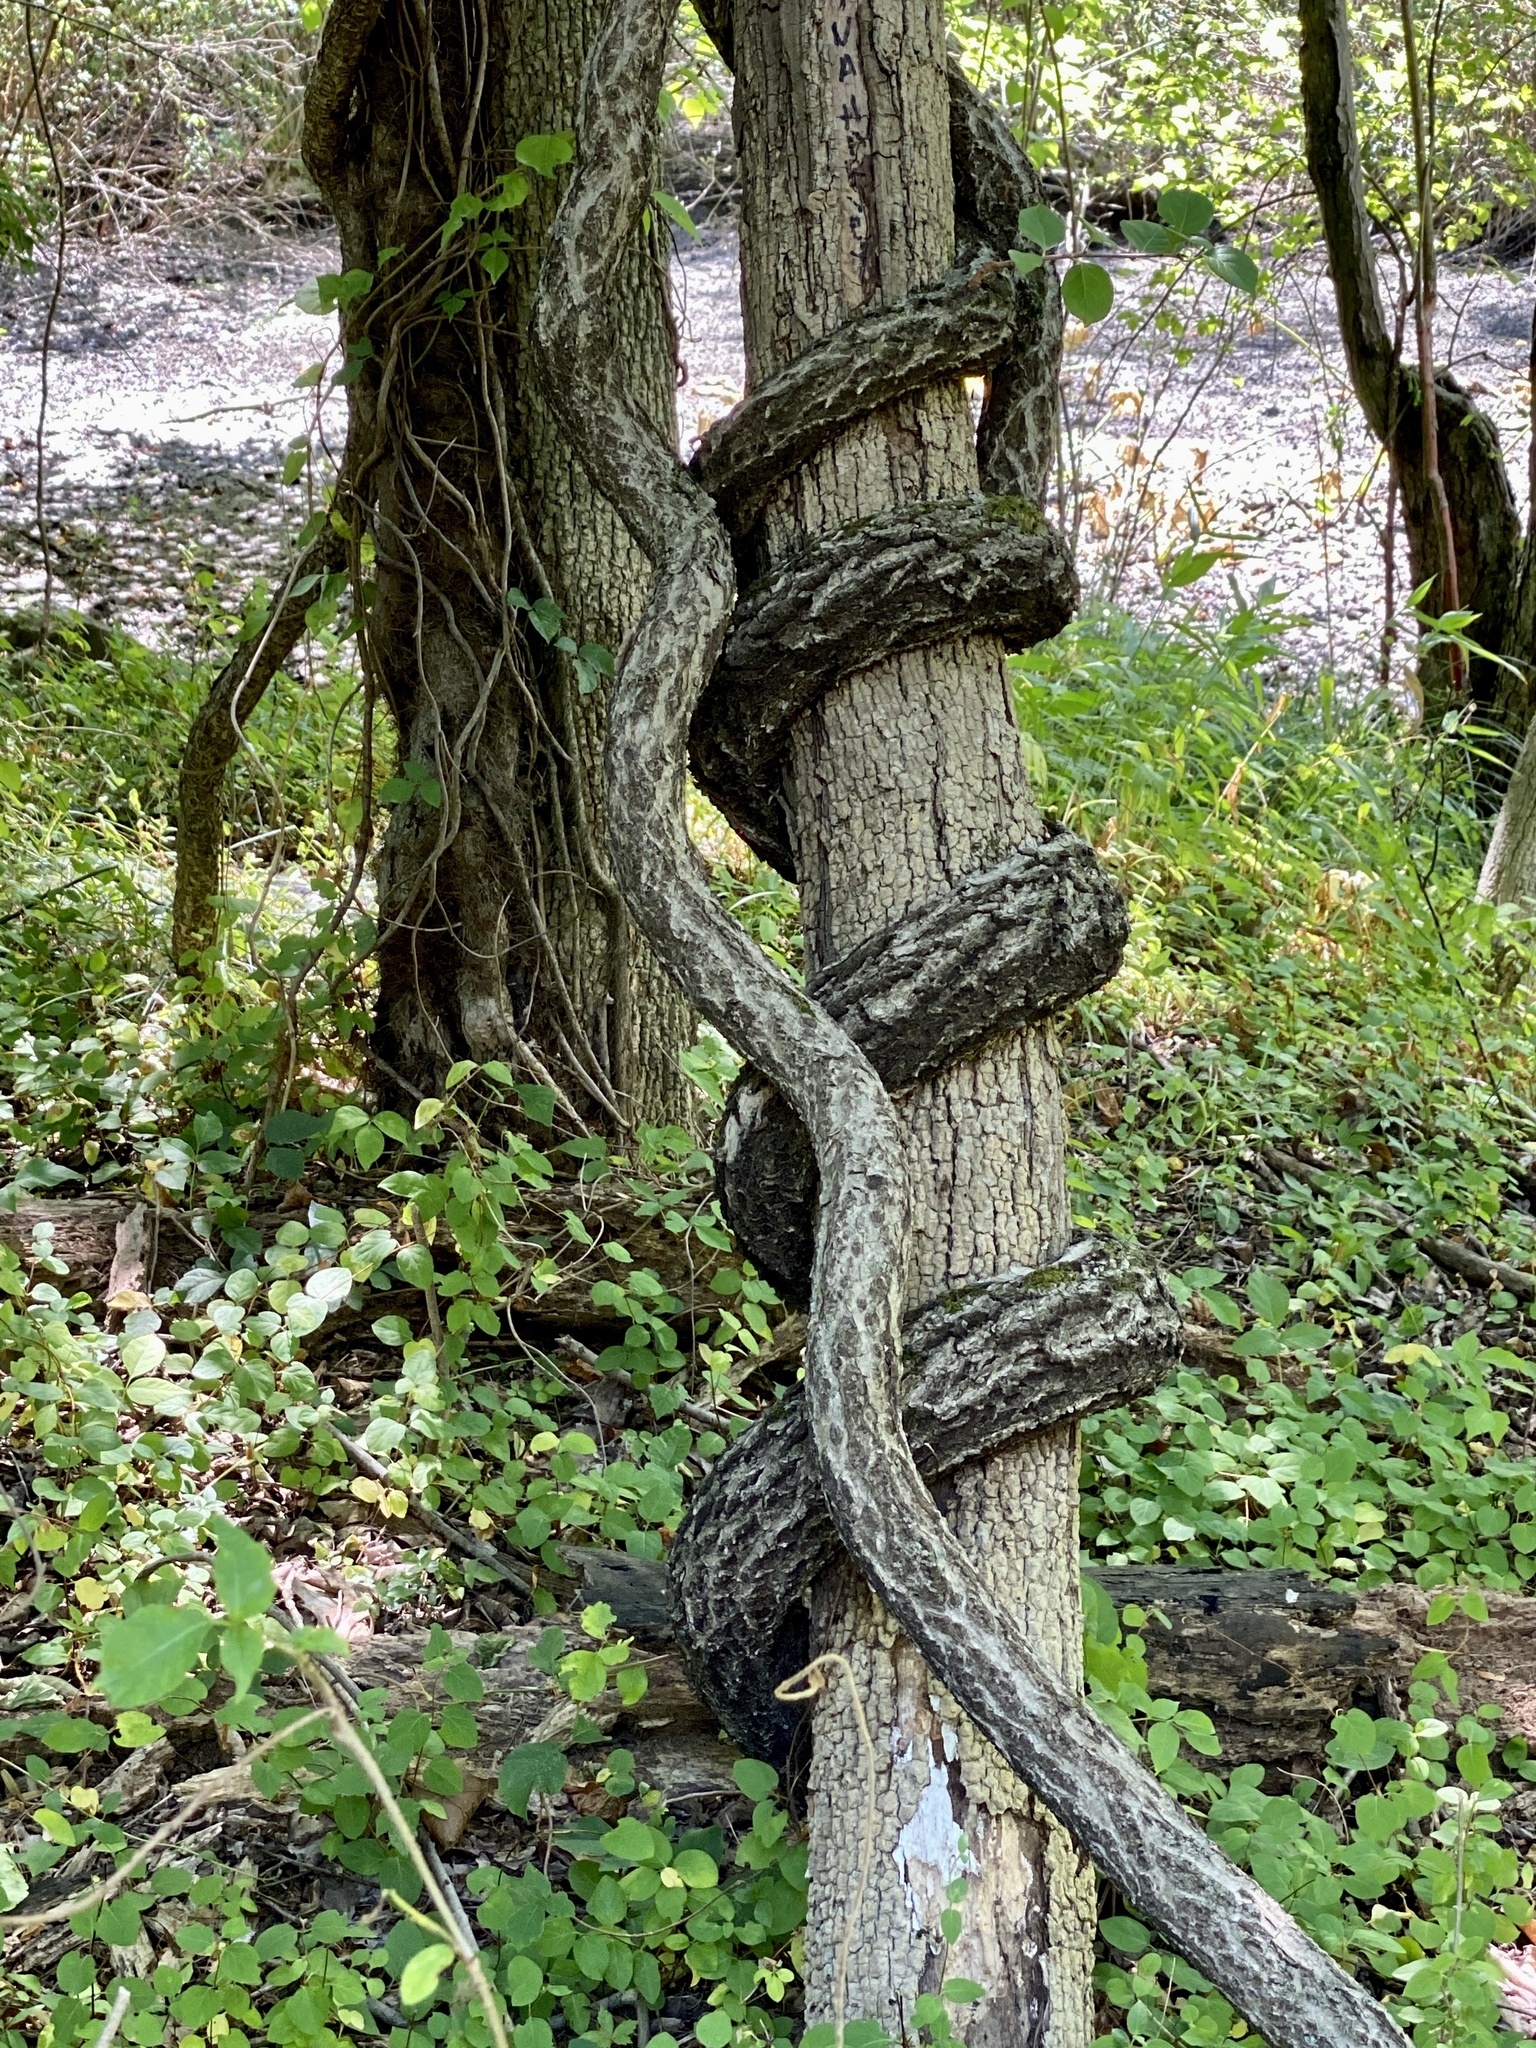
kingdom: Plantae
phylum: Tracheophyta
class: Magnoliopsida
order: Celastrales
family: Celastraceae
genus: Celastrus
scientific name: Celastrus orbiculatus
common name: Oriental bittersweet
